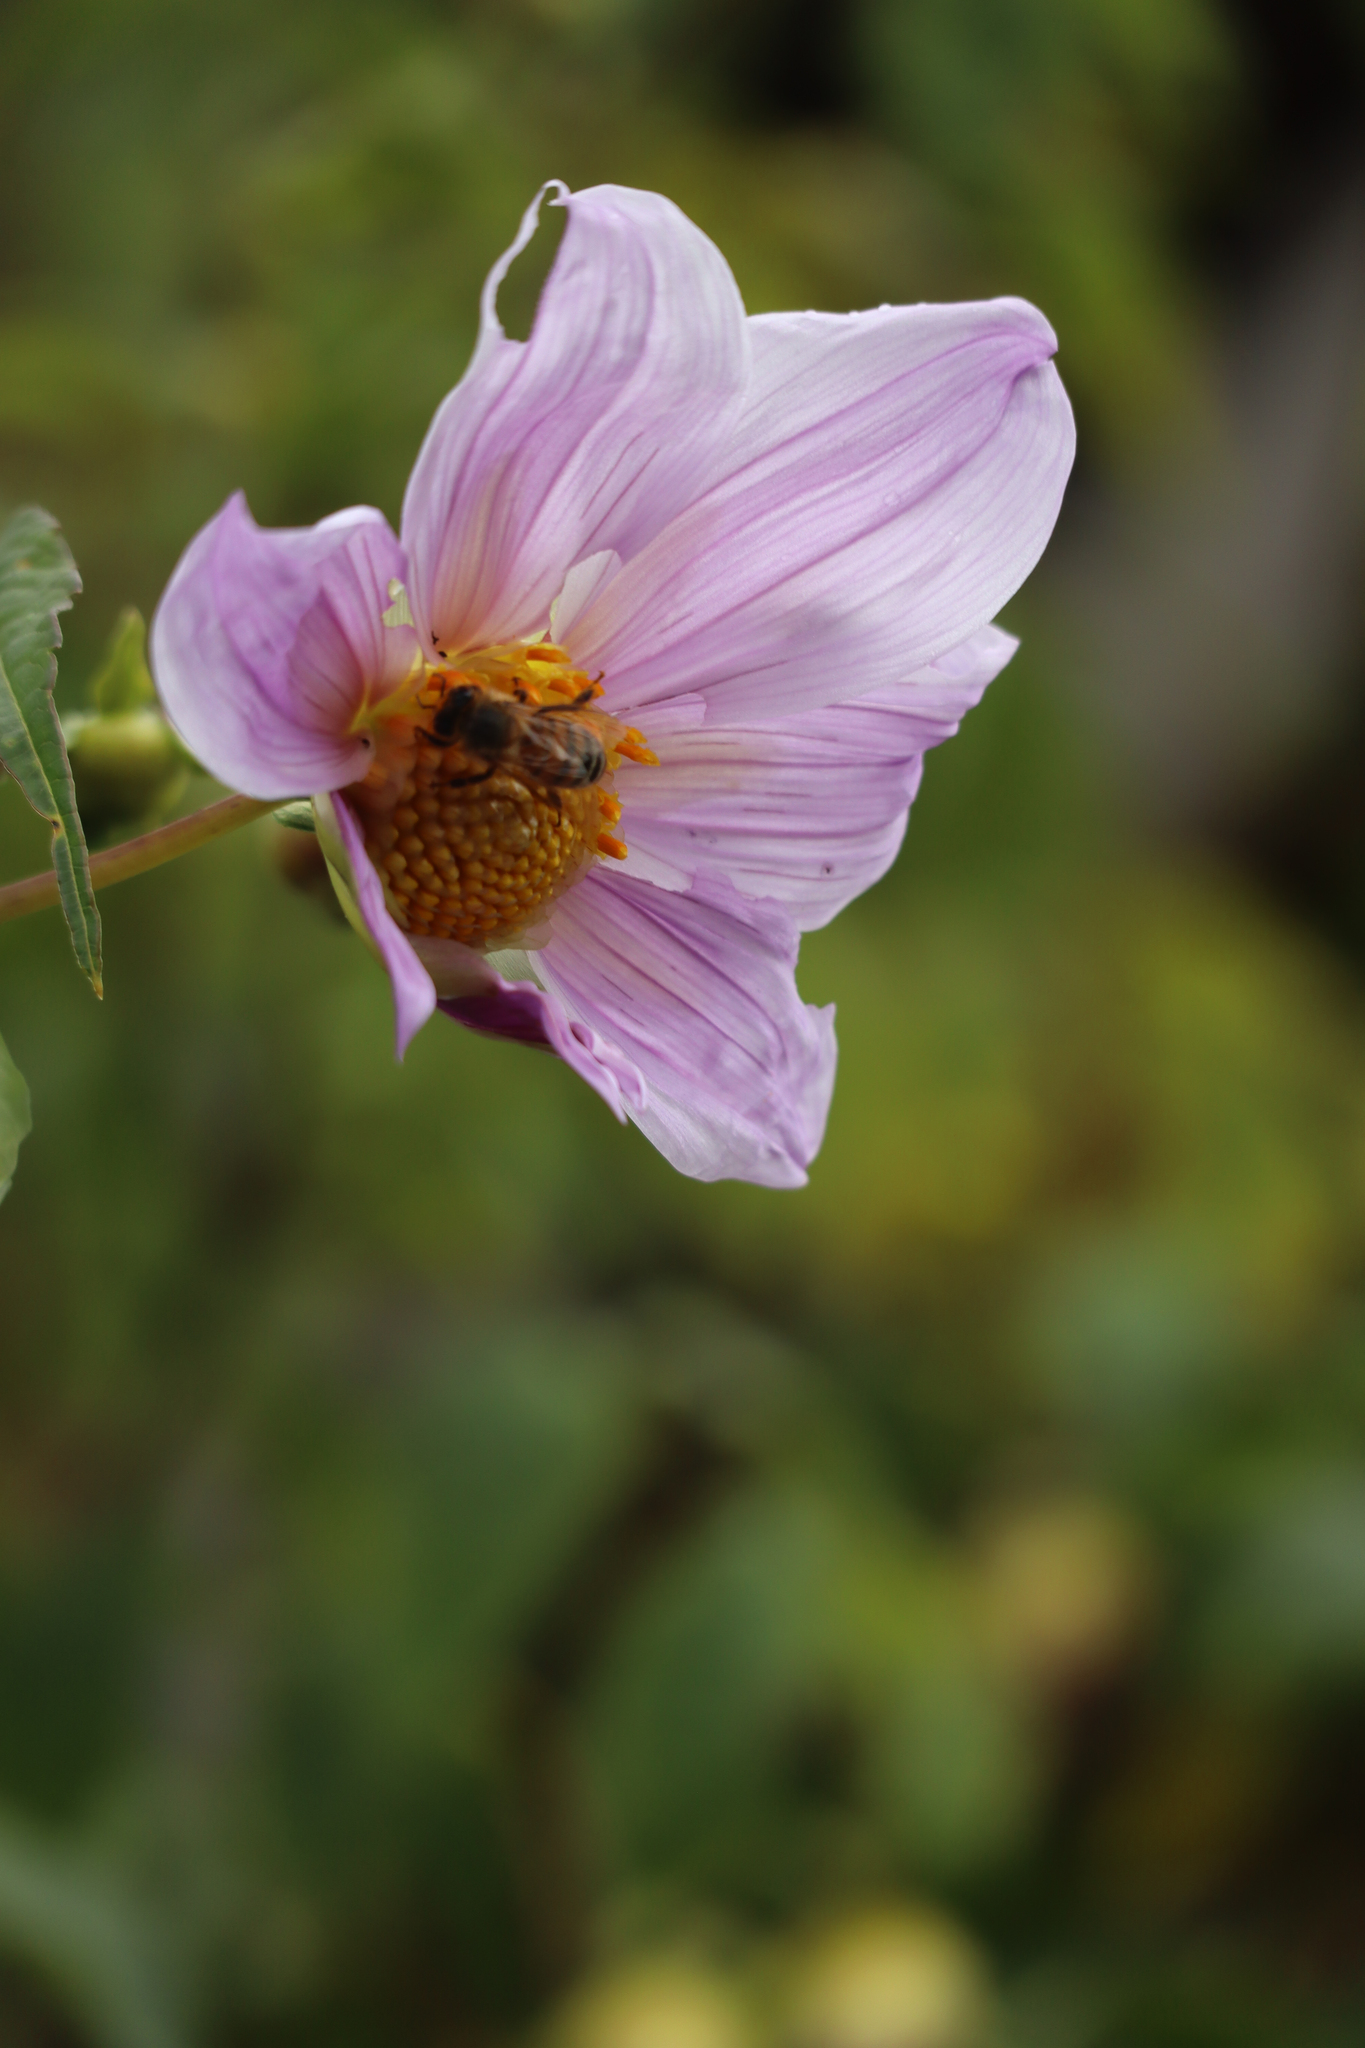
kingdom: Plantae
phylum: Tracheophyta
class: Magnoliopsida
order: Asterales
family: Asteraceae
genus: Dahlia
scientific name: Dahlia imperialis
